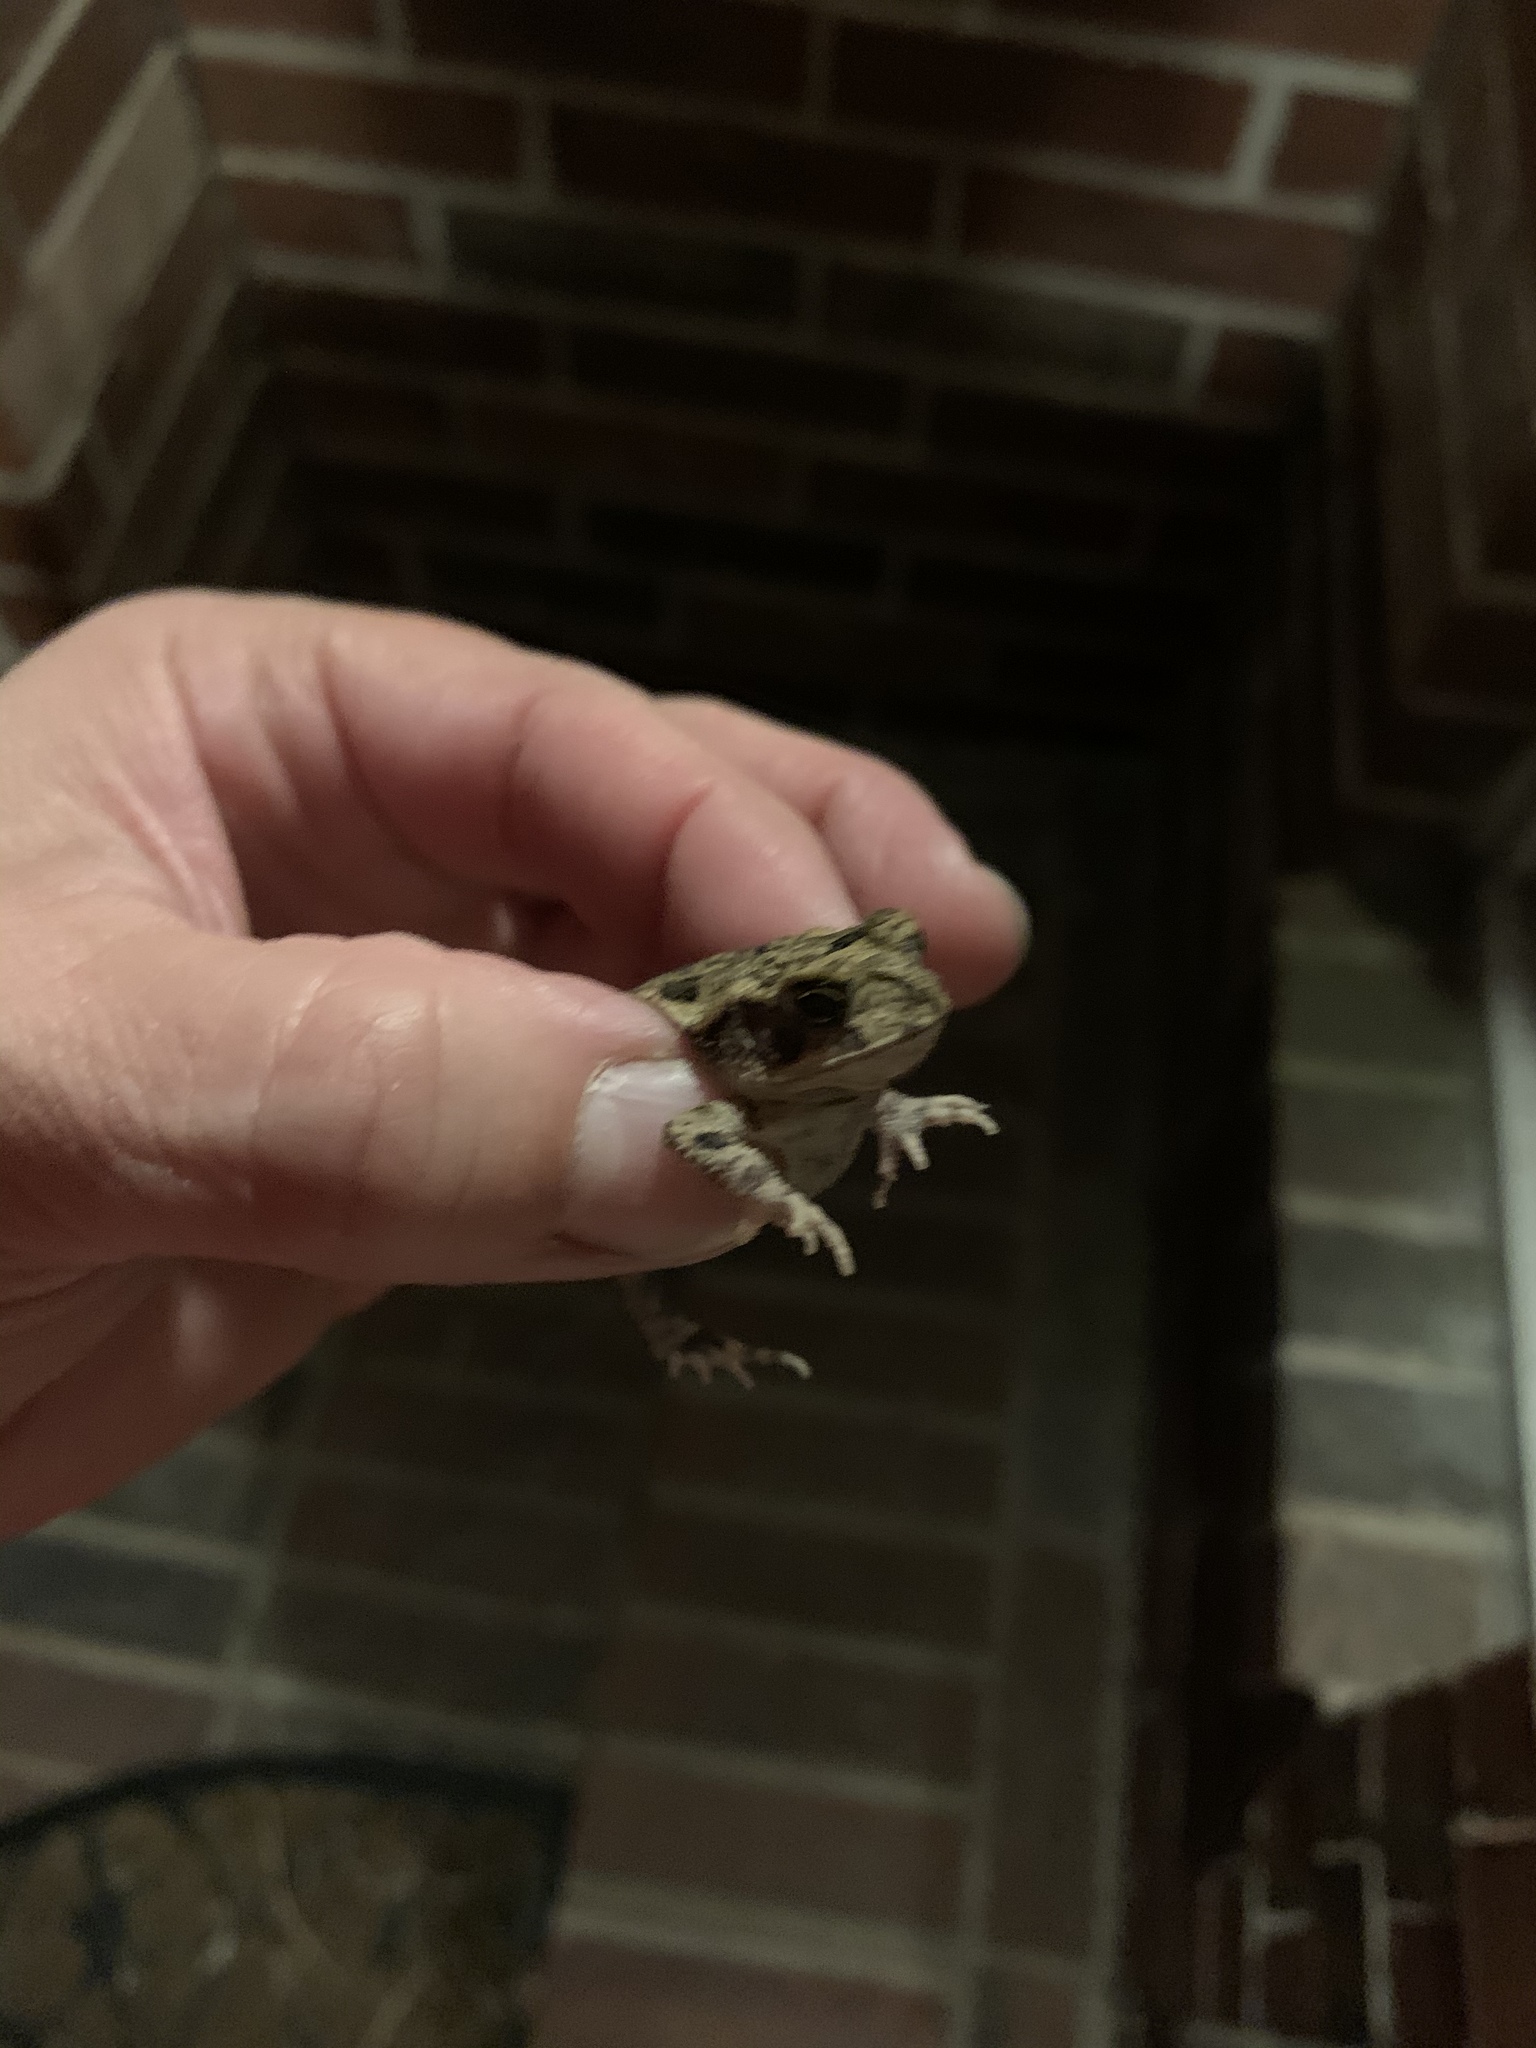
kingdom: Animalia
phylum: Chordata
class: Amphibia
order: Anura
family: Bufonidae
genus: Incilius
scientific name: Incilius nebulifer
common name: Gulf coast toad
